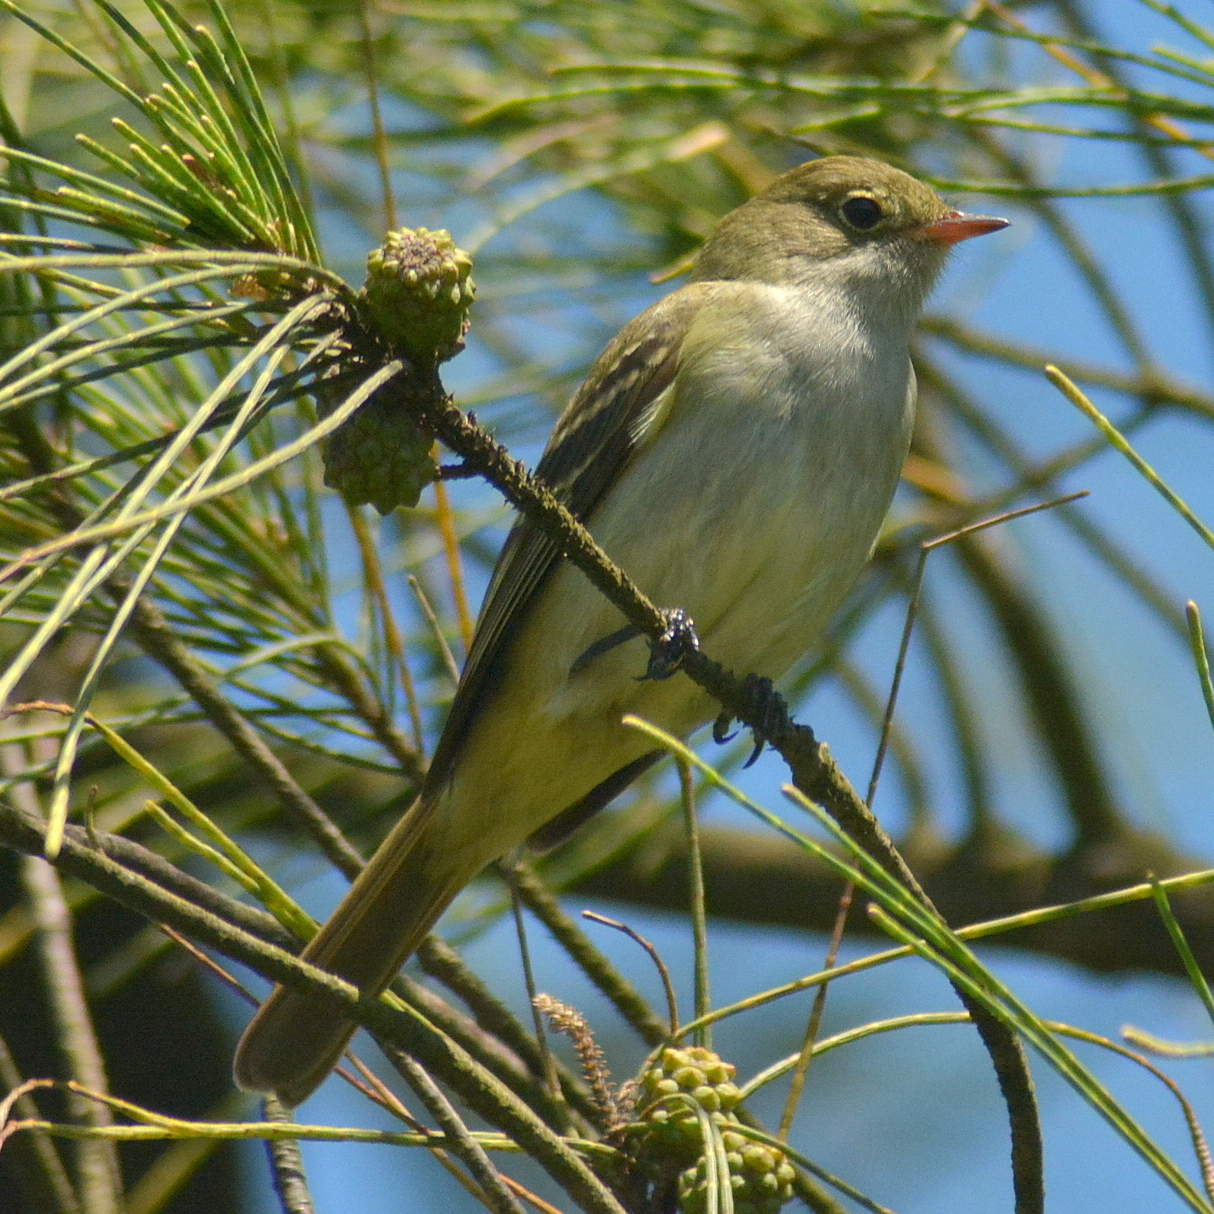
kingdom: Animalia
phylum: Chordata
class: Aves
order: Passeriformes
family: Tyrannidae
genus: Elaenia
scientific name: Elaenia parvirostris
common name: Small-billed elaenia
